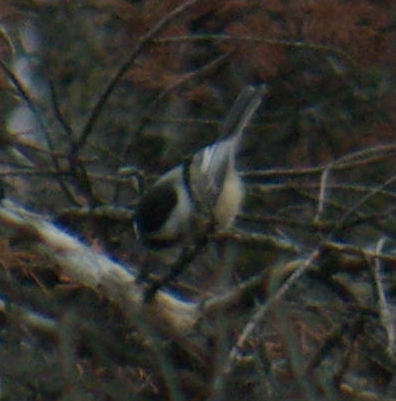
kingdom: Animalia
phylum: Chordata
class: Aves
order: Passeriformes
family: Paridae
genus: Poecile
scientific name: Poecile atricapillus
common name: Black-capped chickadee
